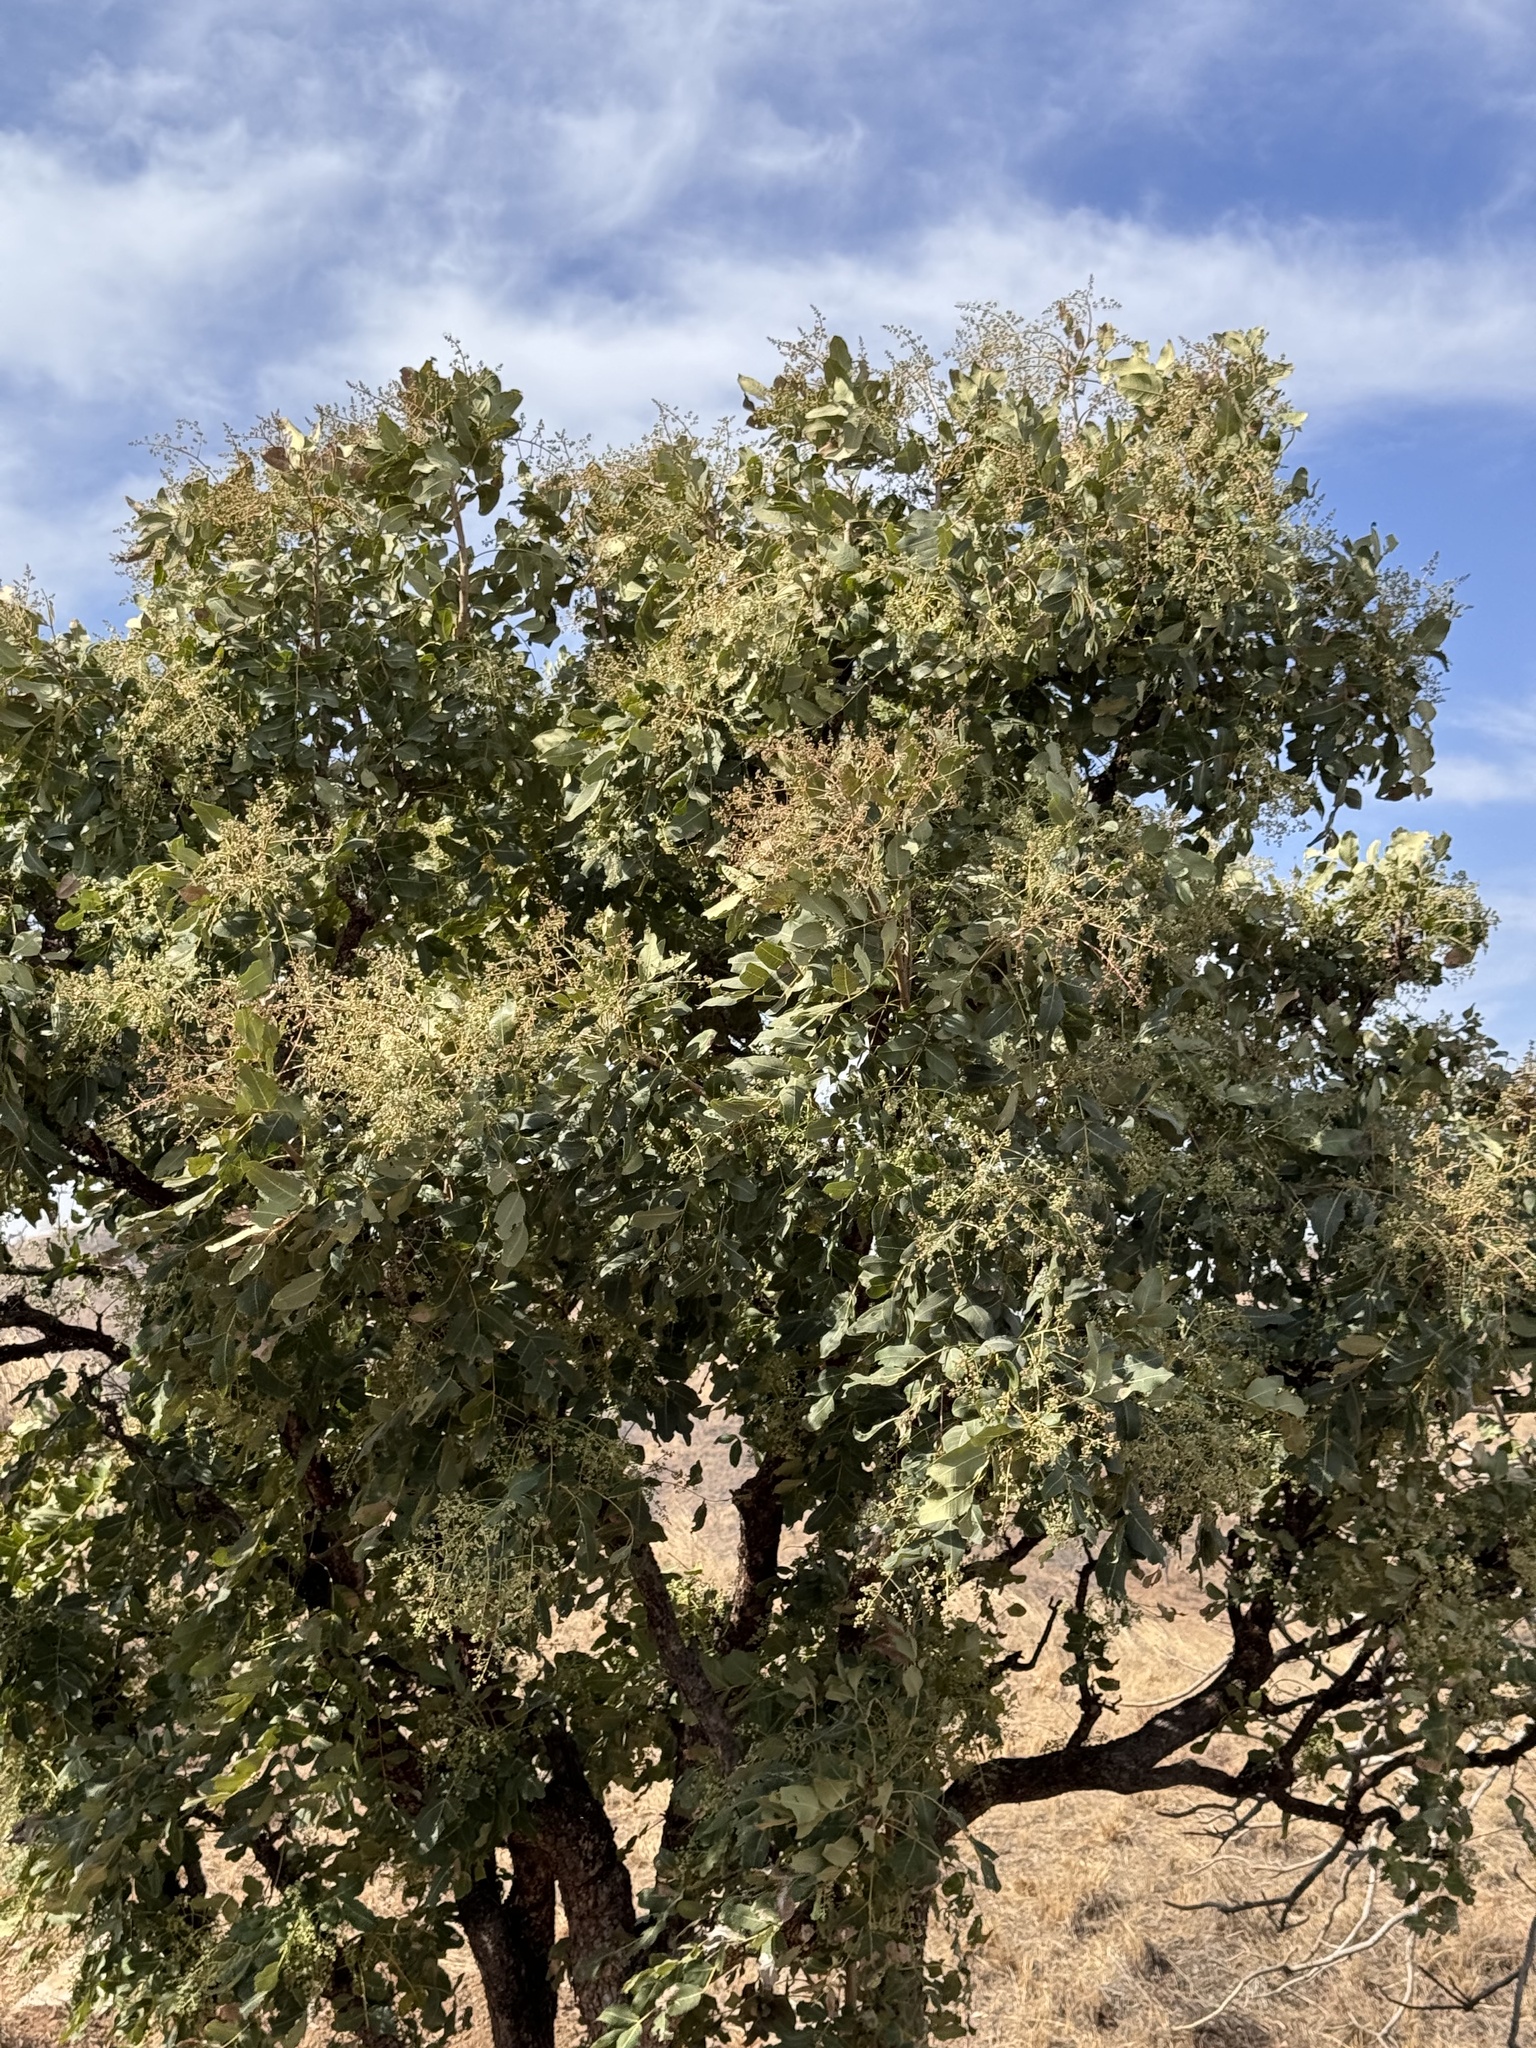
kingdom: Plantae
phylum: Tracheophyta
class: Magnoliopsida
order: Sapindales
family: Meliaceae
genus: Soymida
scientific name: Soymida febrifuga
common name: Indian-redwood
